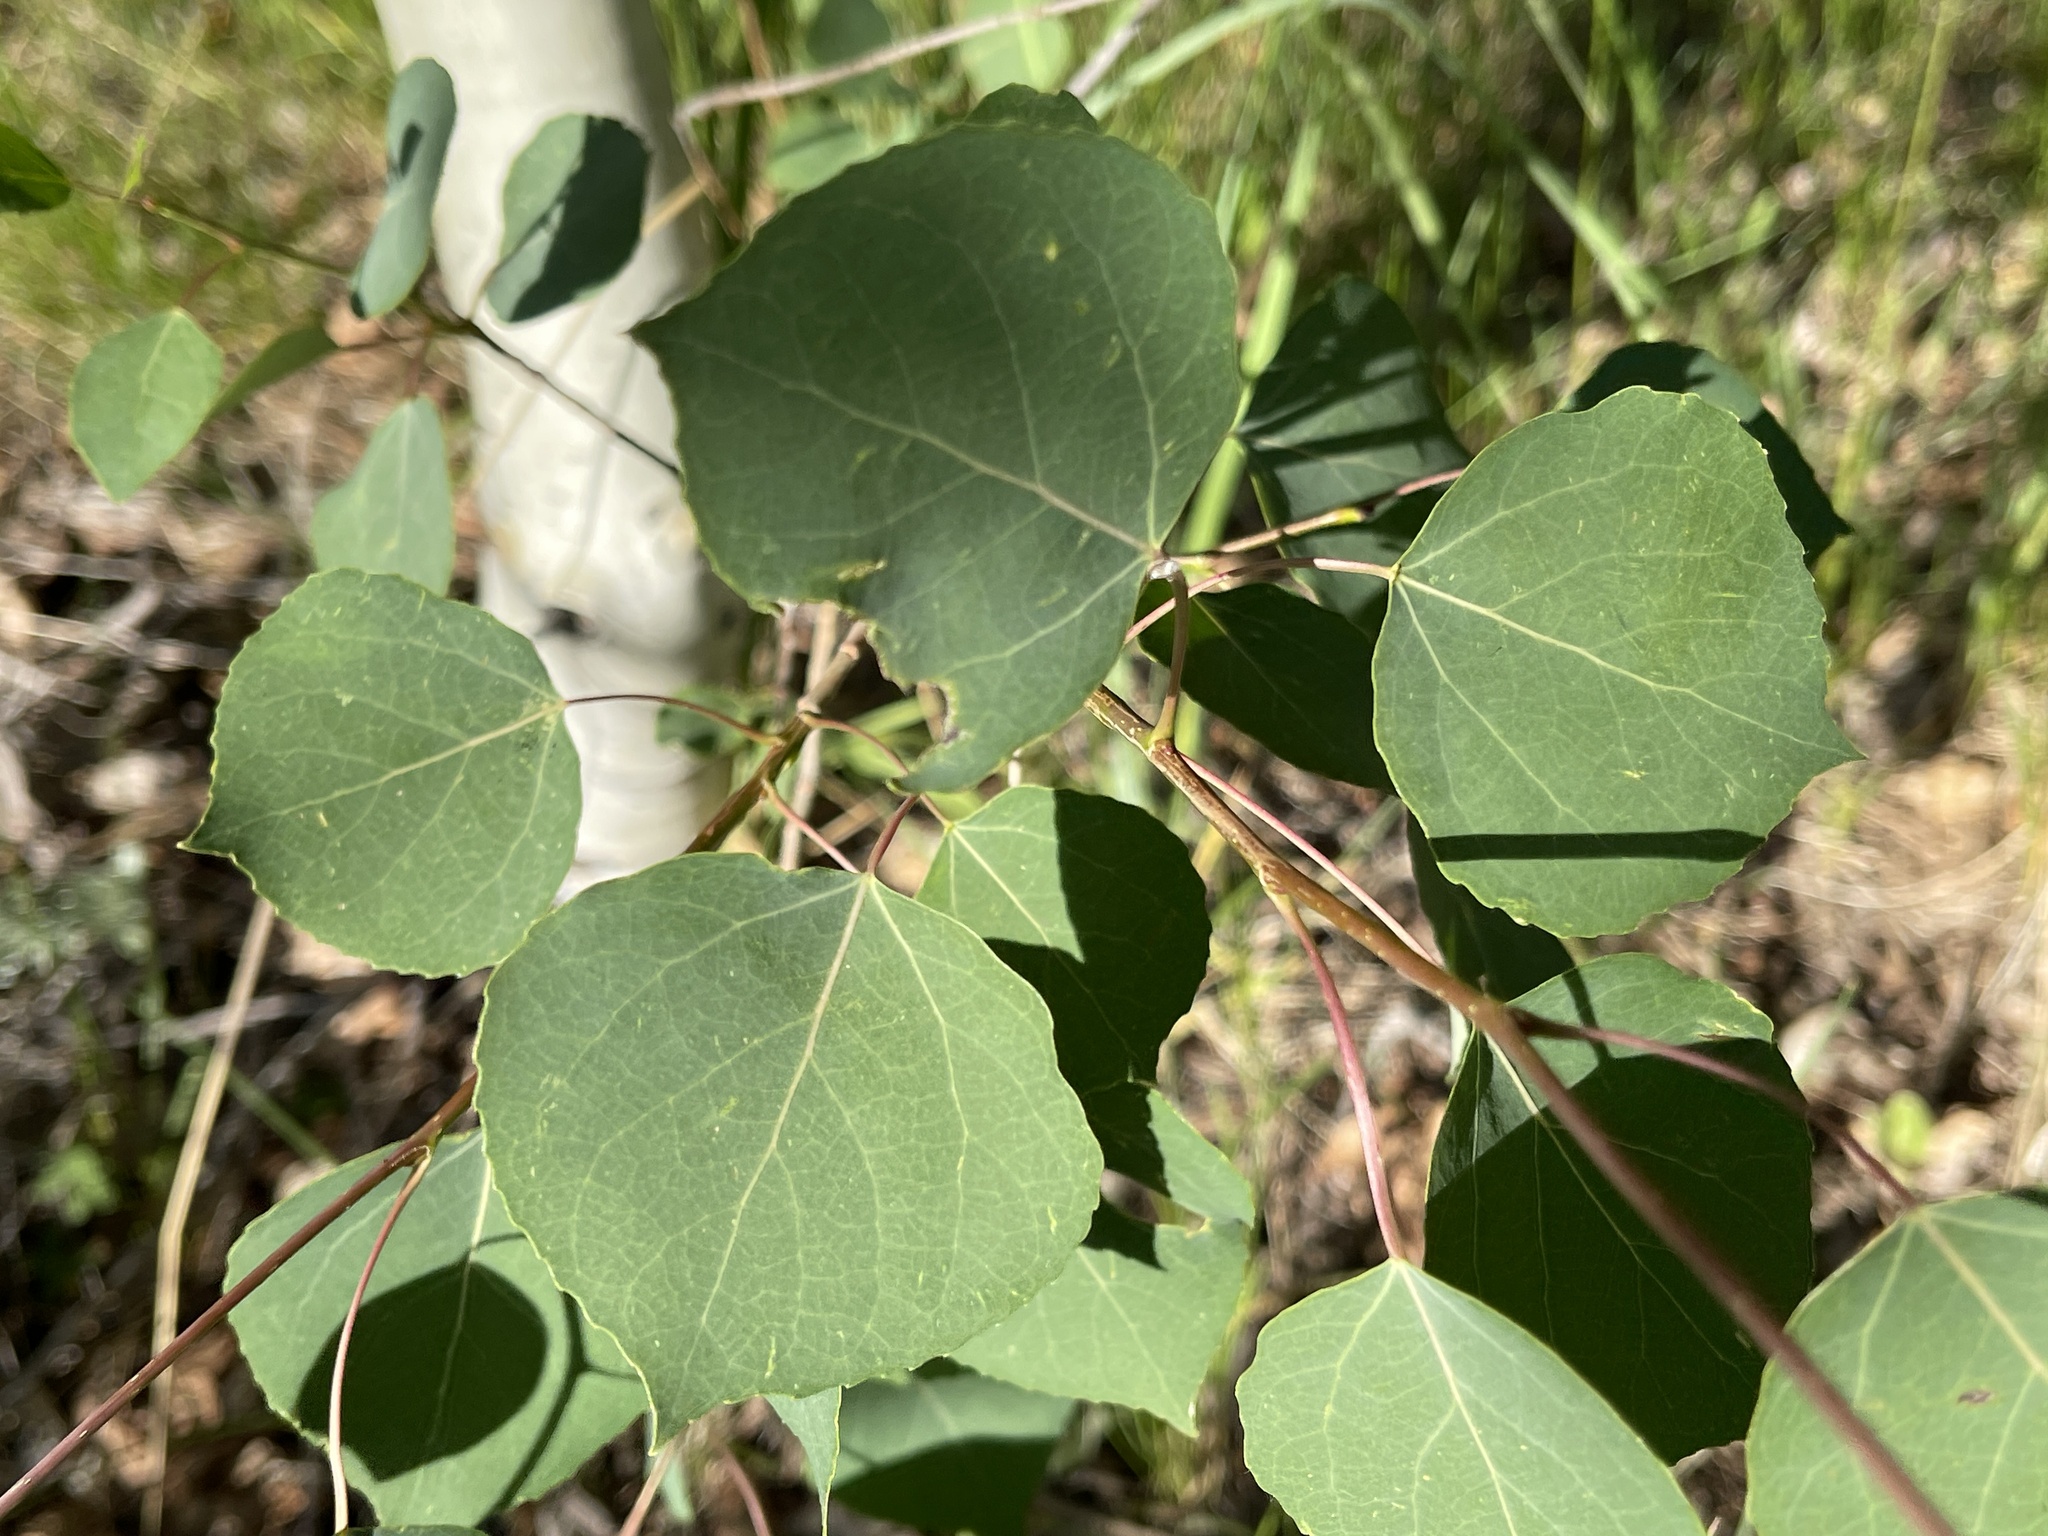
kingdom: Plantae
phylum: Tracheophyta
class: Magnoliopsida
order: Malpighiales
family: Salicaceae
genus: Populus
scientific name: Populus tremuloides
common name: Quaking aspen
